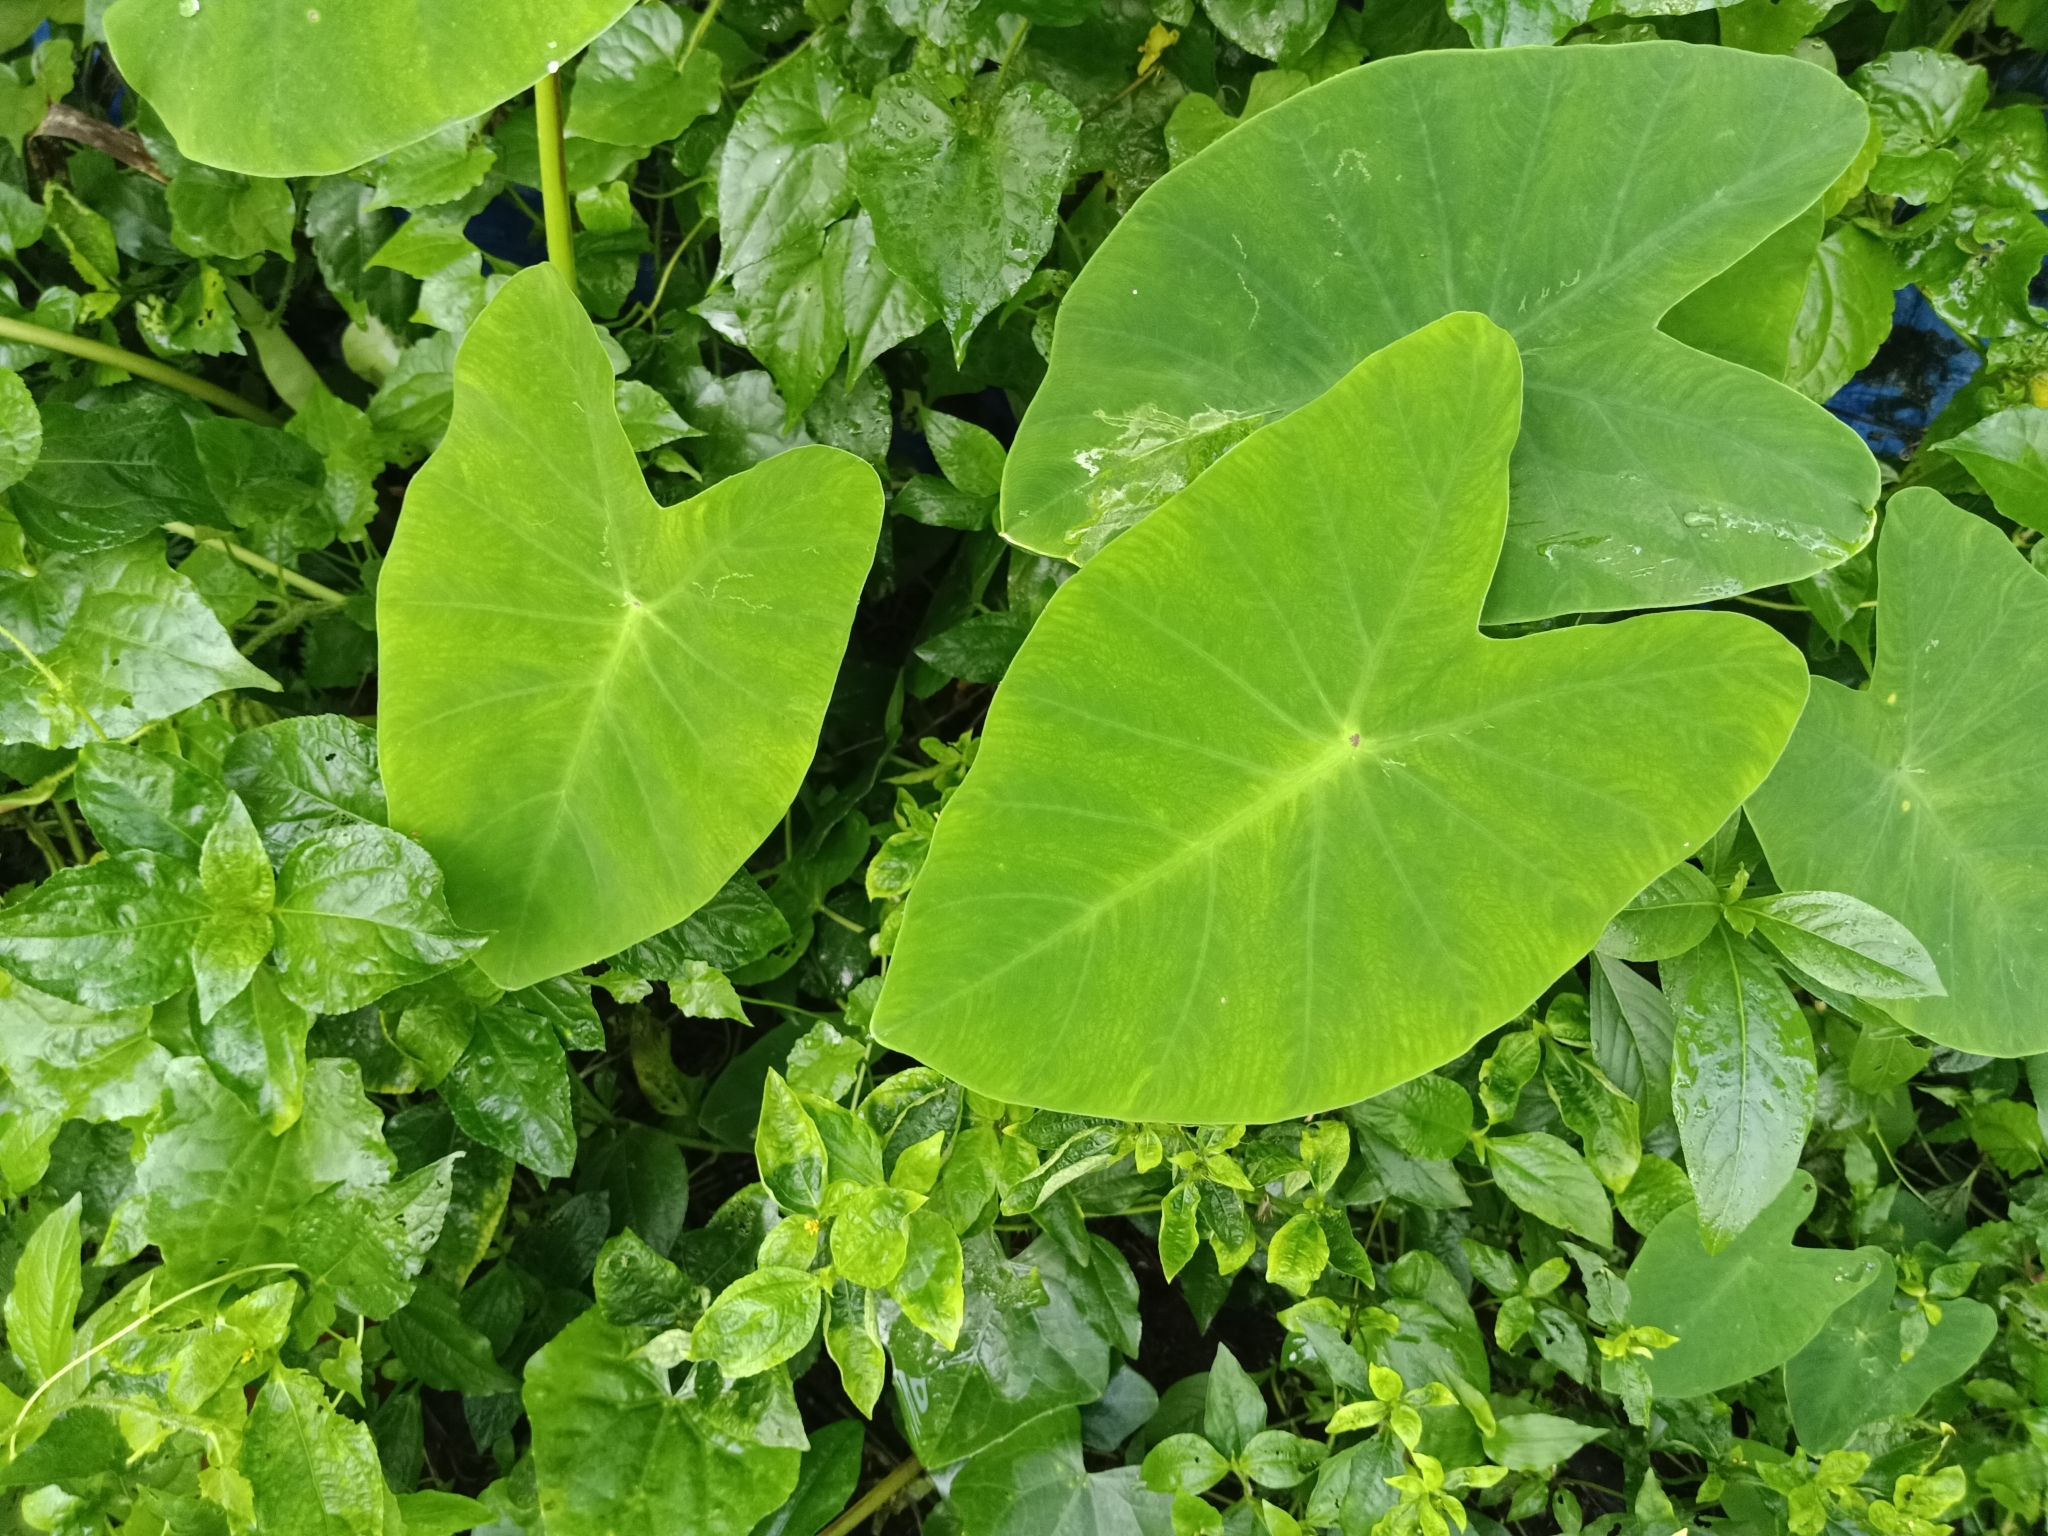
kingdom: Plantae
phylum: Tracheophyta
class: Liliopsida
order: Alismatales
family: Araceae
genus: Colocasia
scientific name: Colocasia esculenta
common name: Taro
